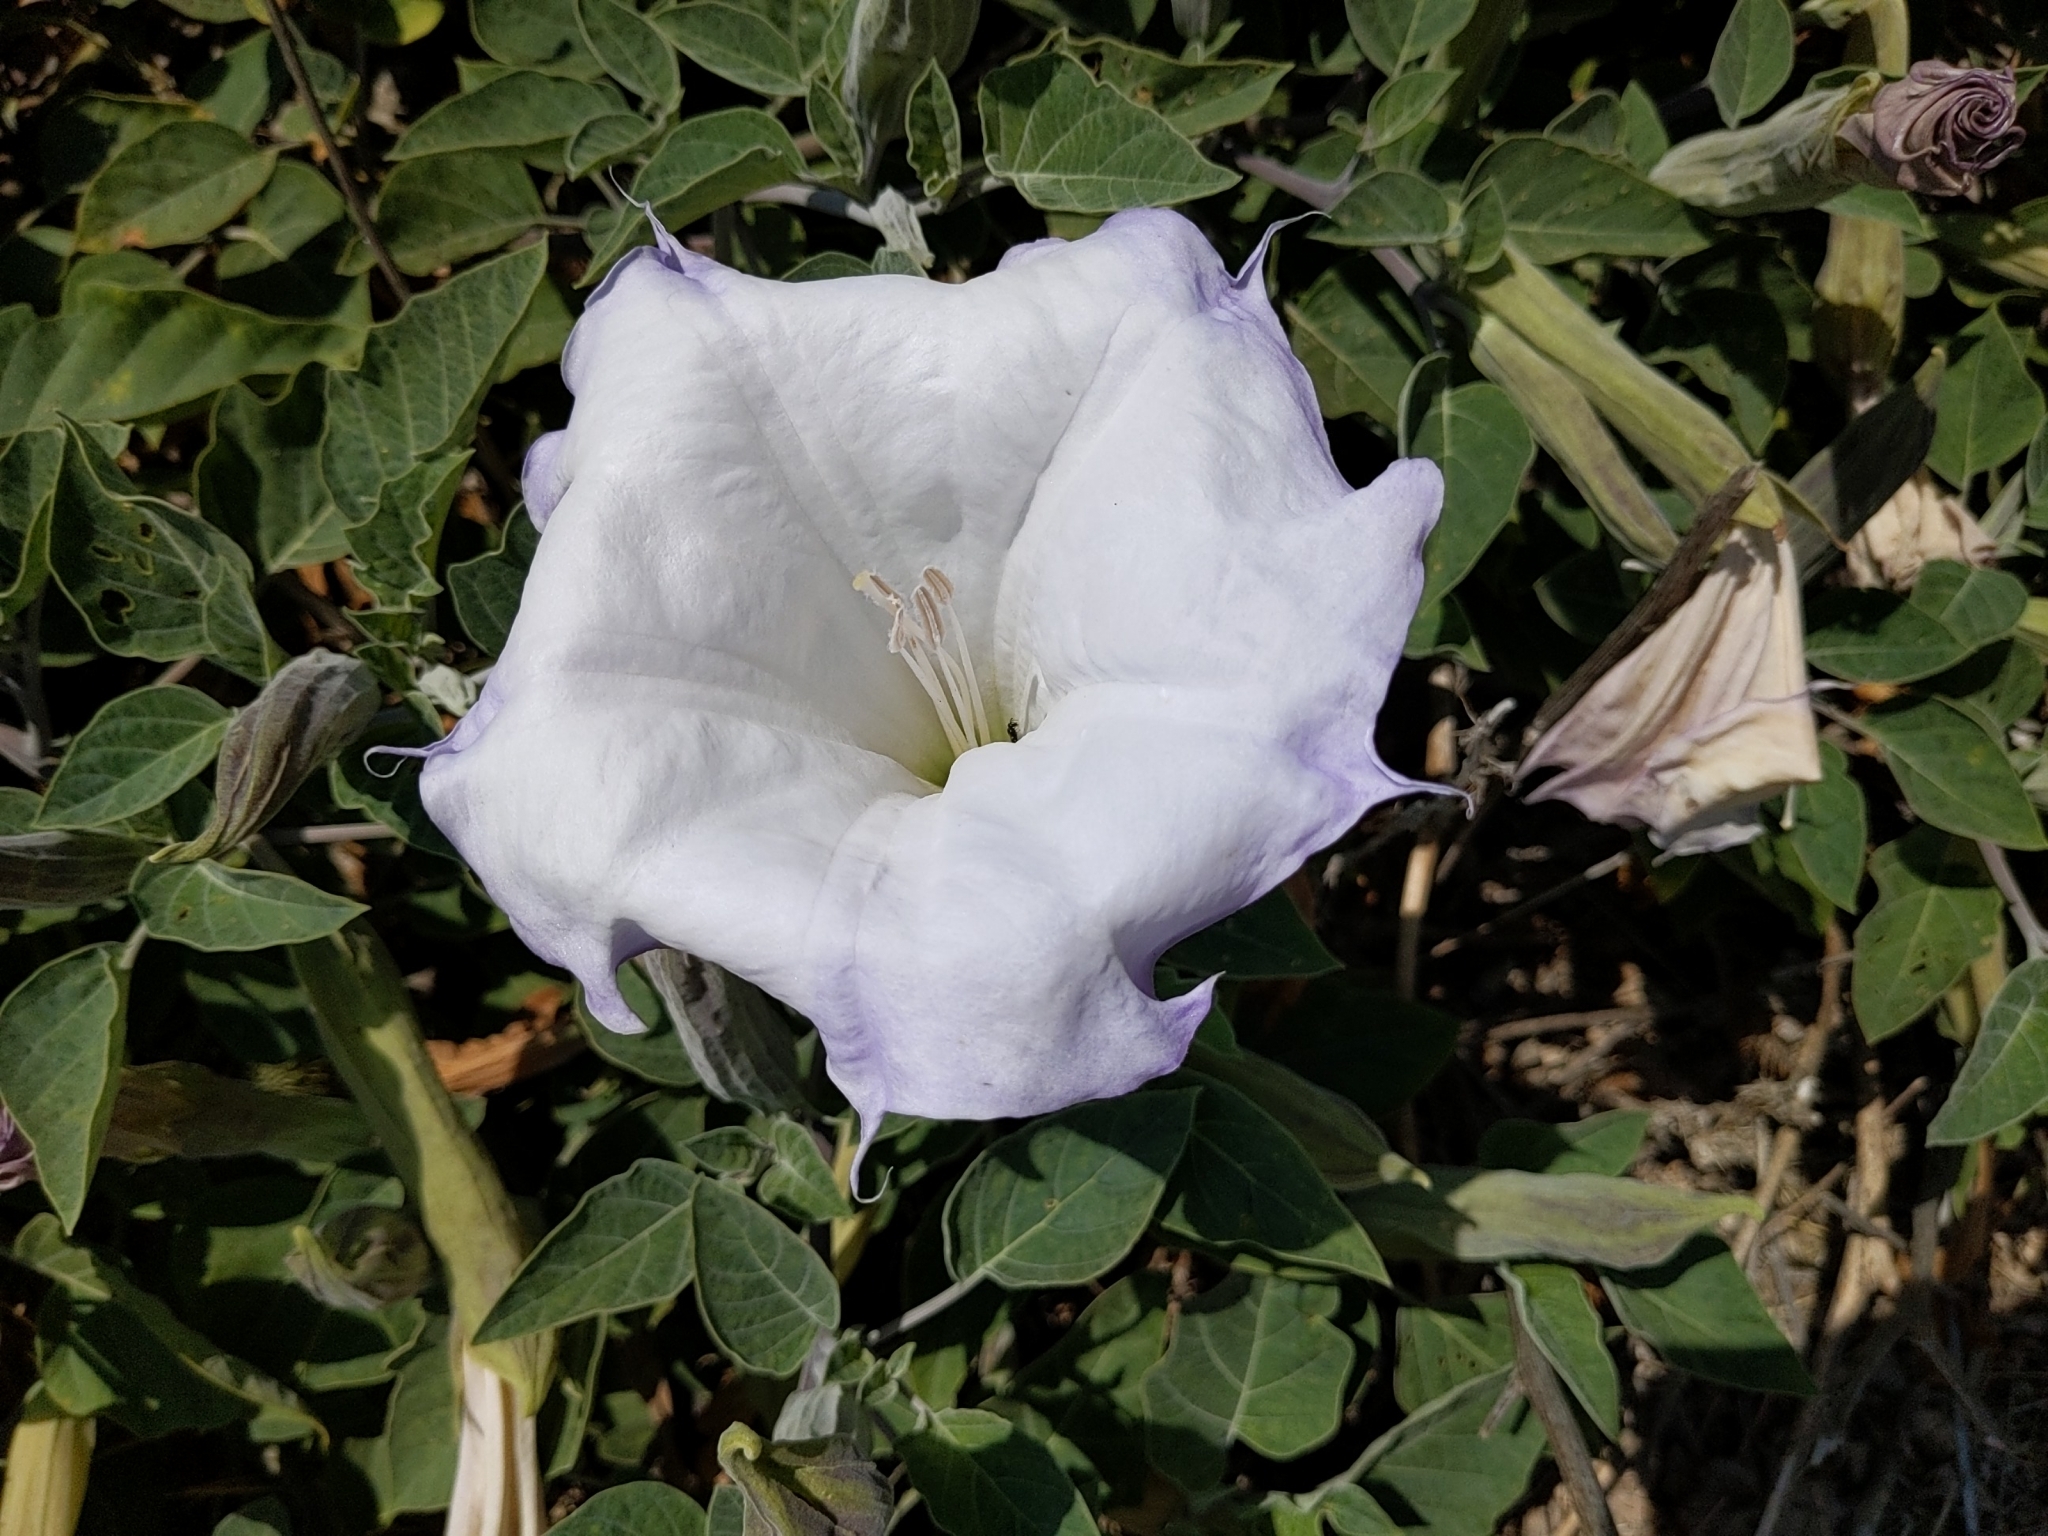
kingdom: Plantae
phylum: Tracheophyta
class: Magnoliopsida
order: Solanales
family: Solanaceae
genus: Datura
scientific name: Datura wrightii
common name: Sacred thorn-apple
